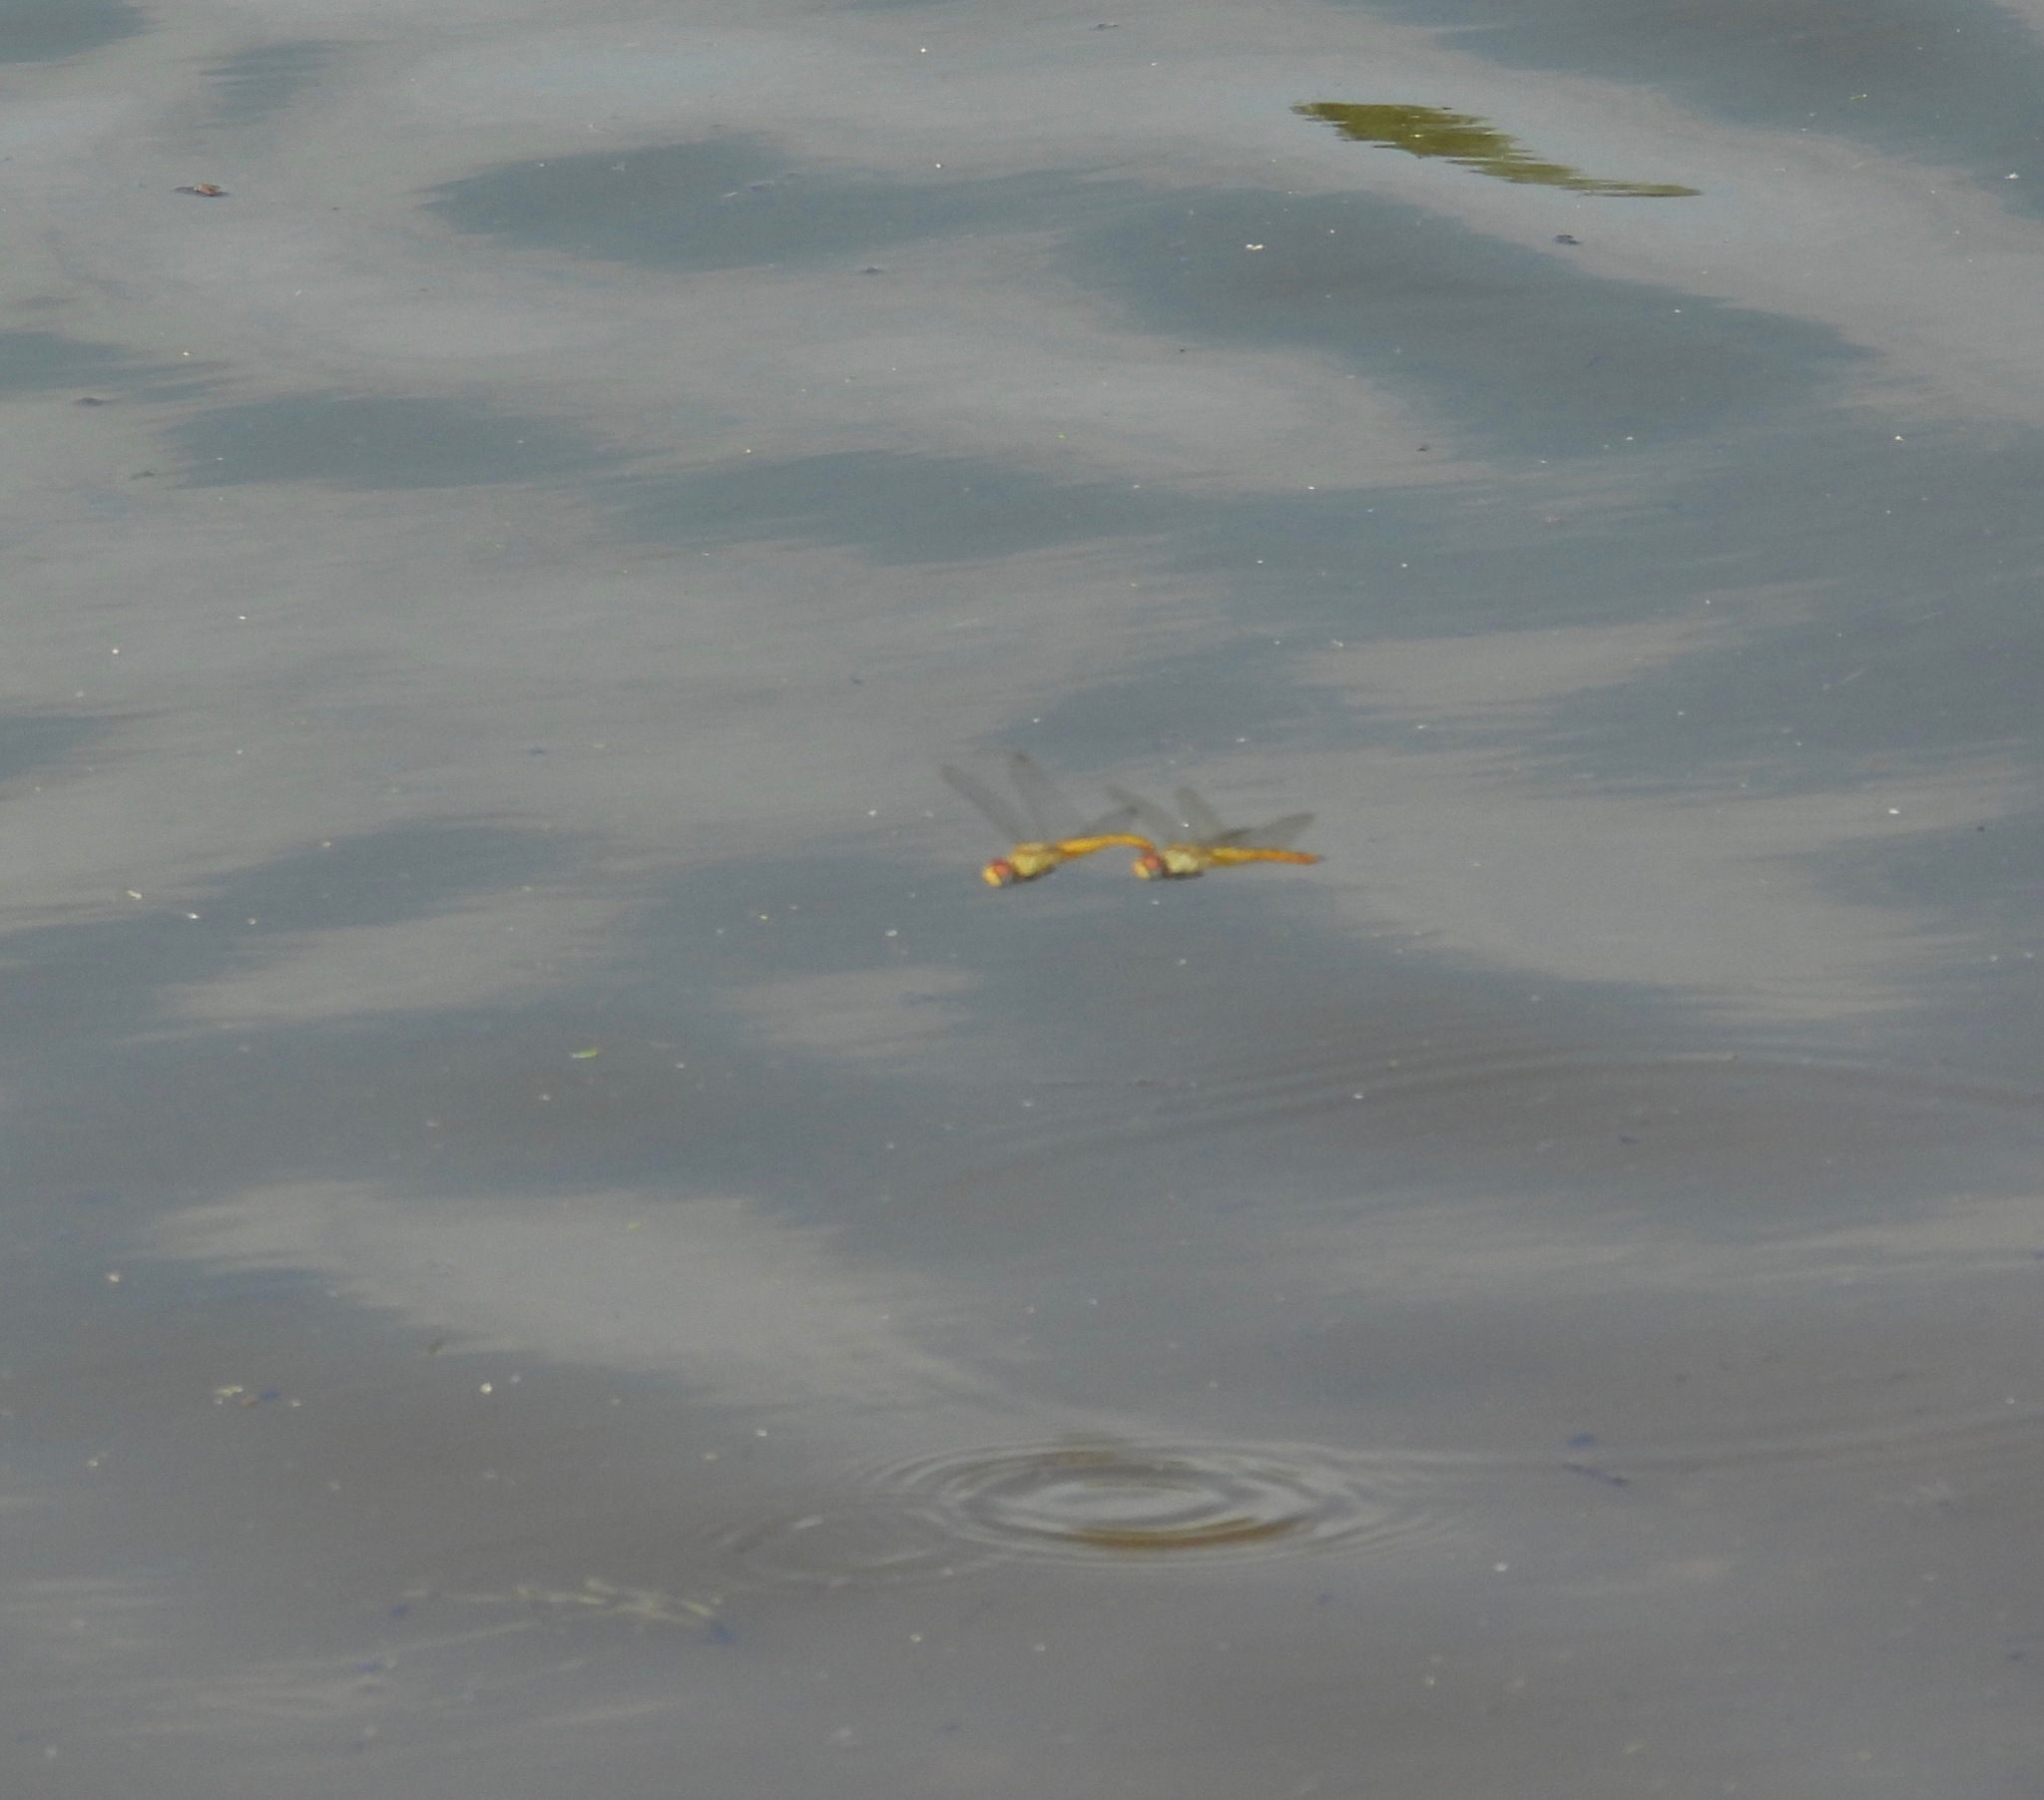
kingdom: Animalia
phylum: Arthropoda
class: Insecta
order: Odonata
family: Libellulidae
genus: Pantala
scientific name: Pantala flavescens
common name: Wandering glider
